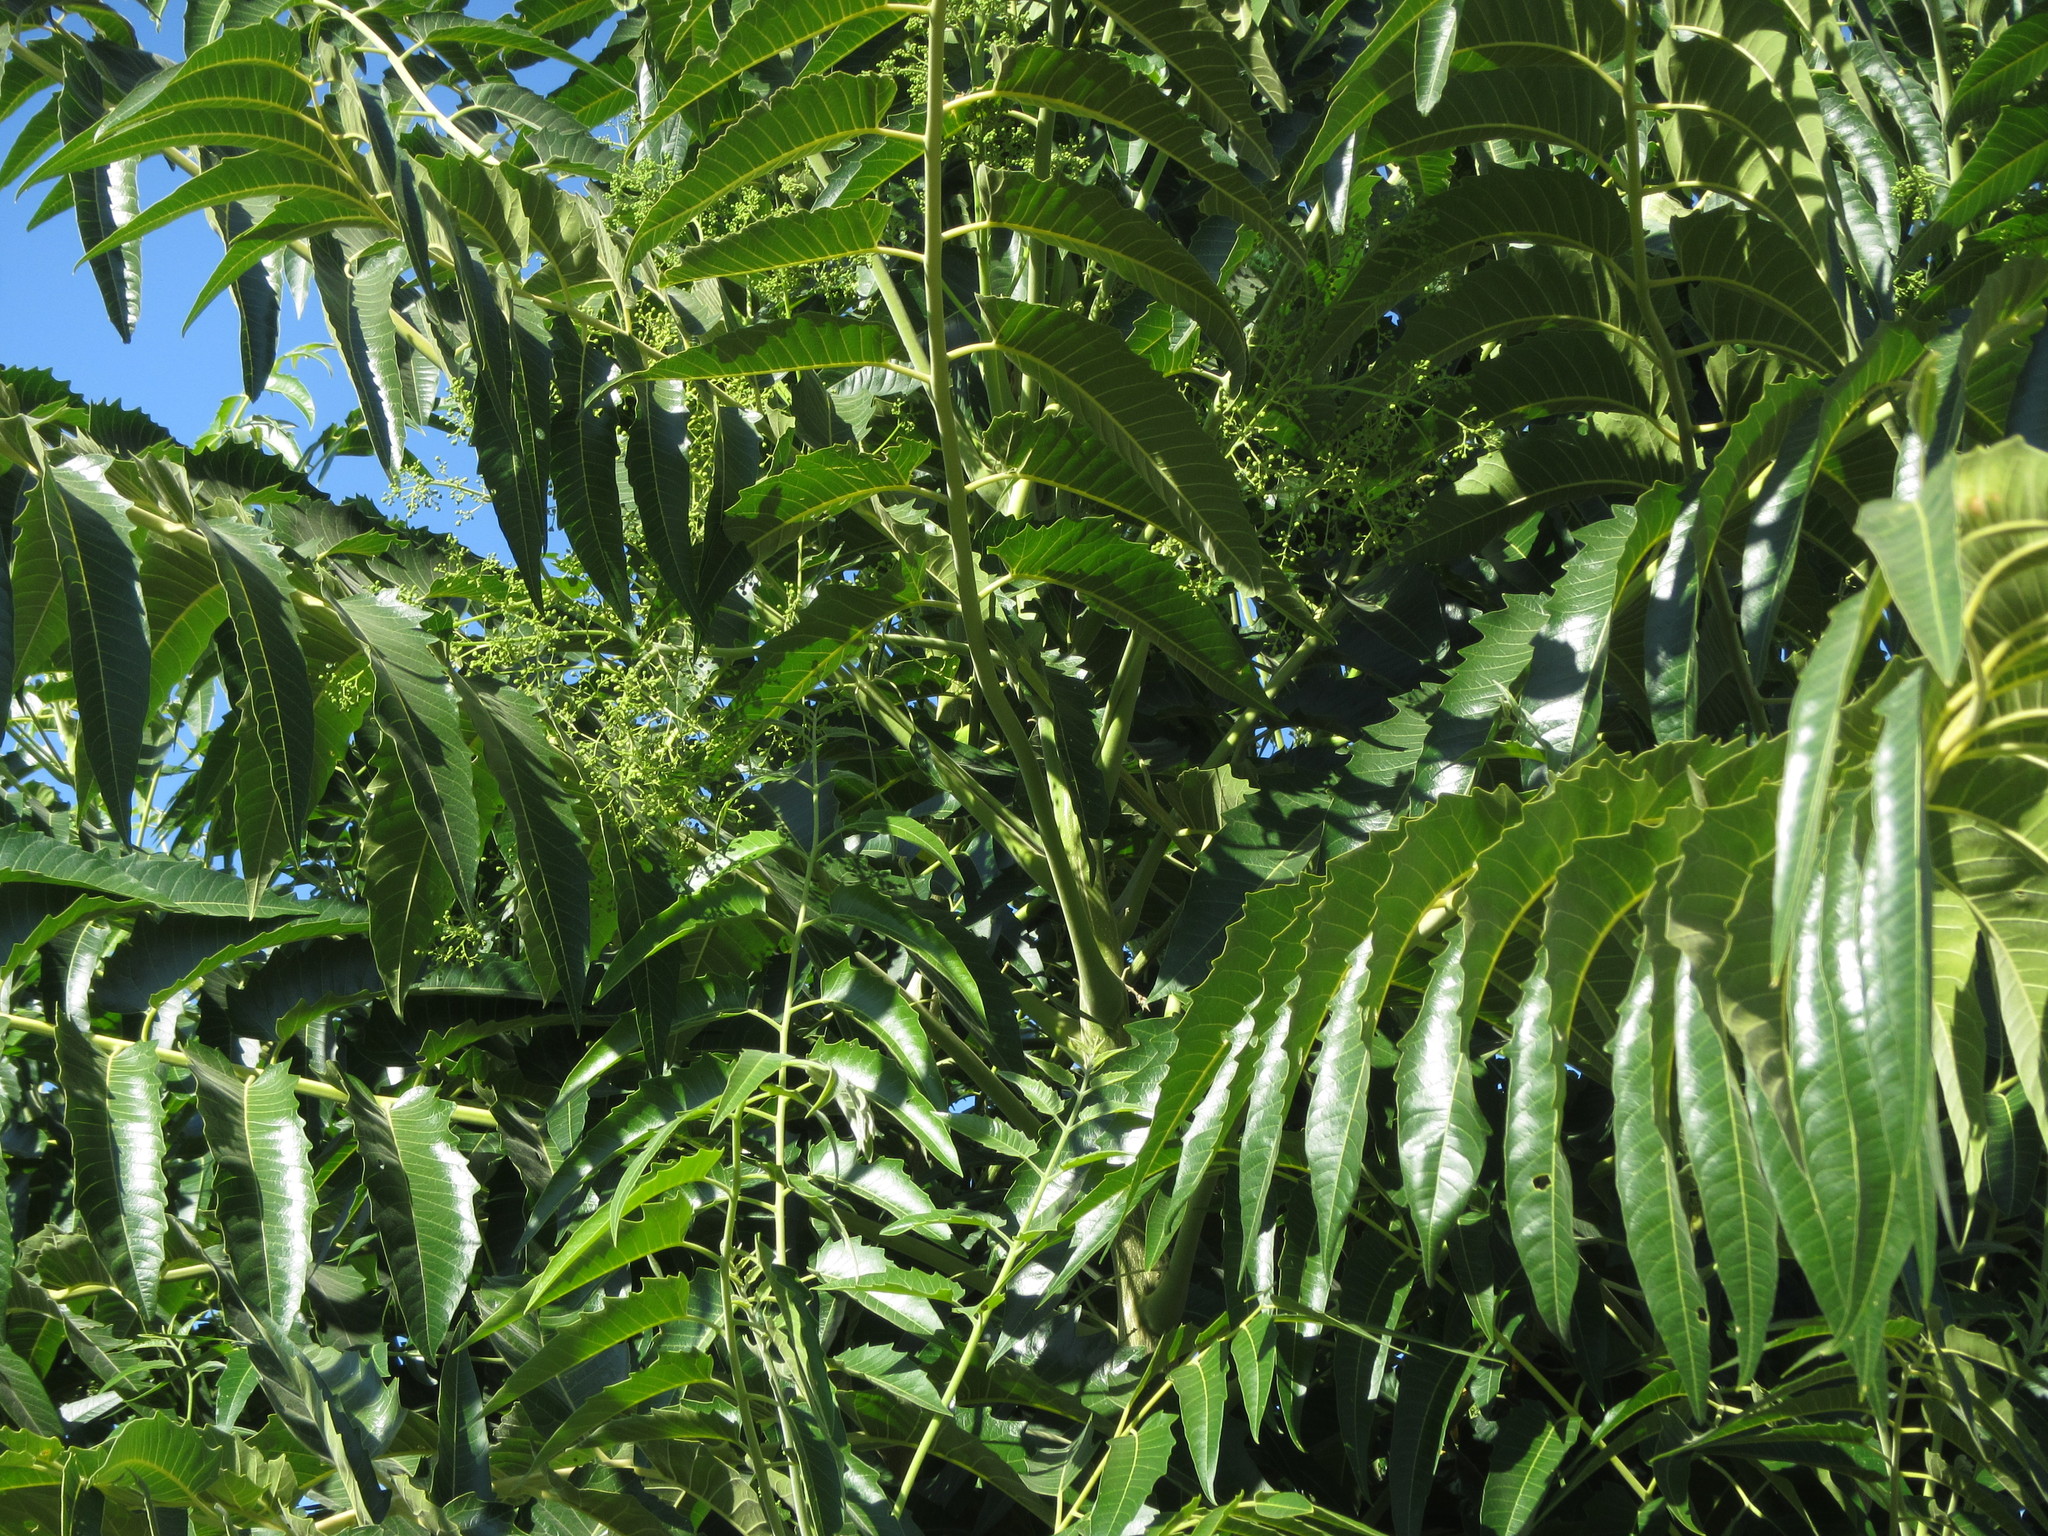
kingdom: Plantae
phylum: Tracheophyta
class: Magnoliopsida
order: Sapindales
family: Simaroubaceae
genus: Ailanthus
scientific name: Ailanthus excelsa
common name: Indian tree-of-heaven
